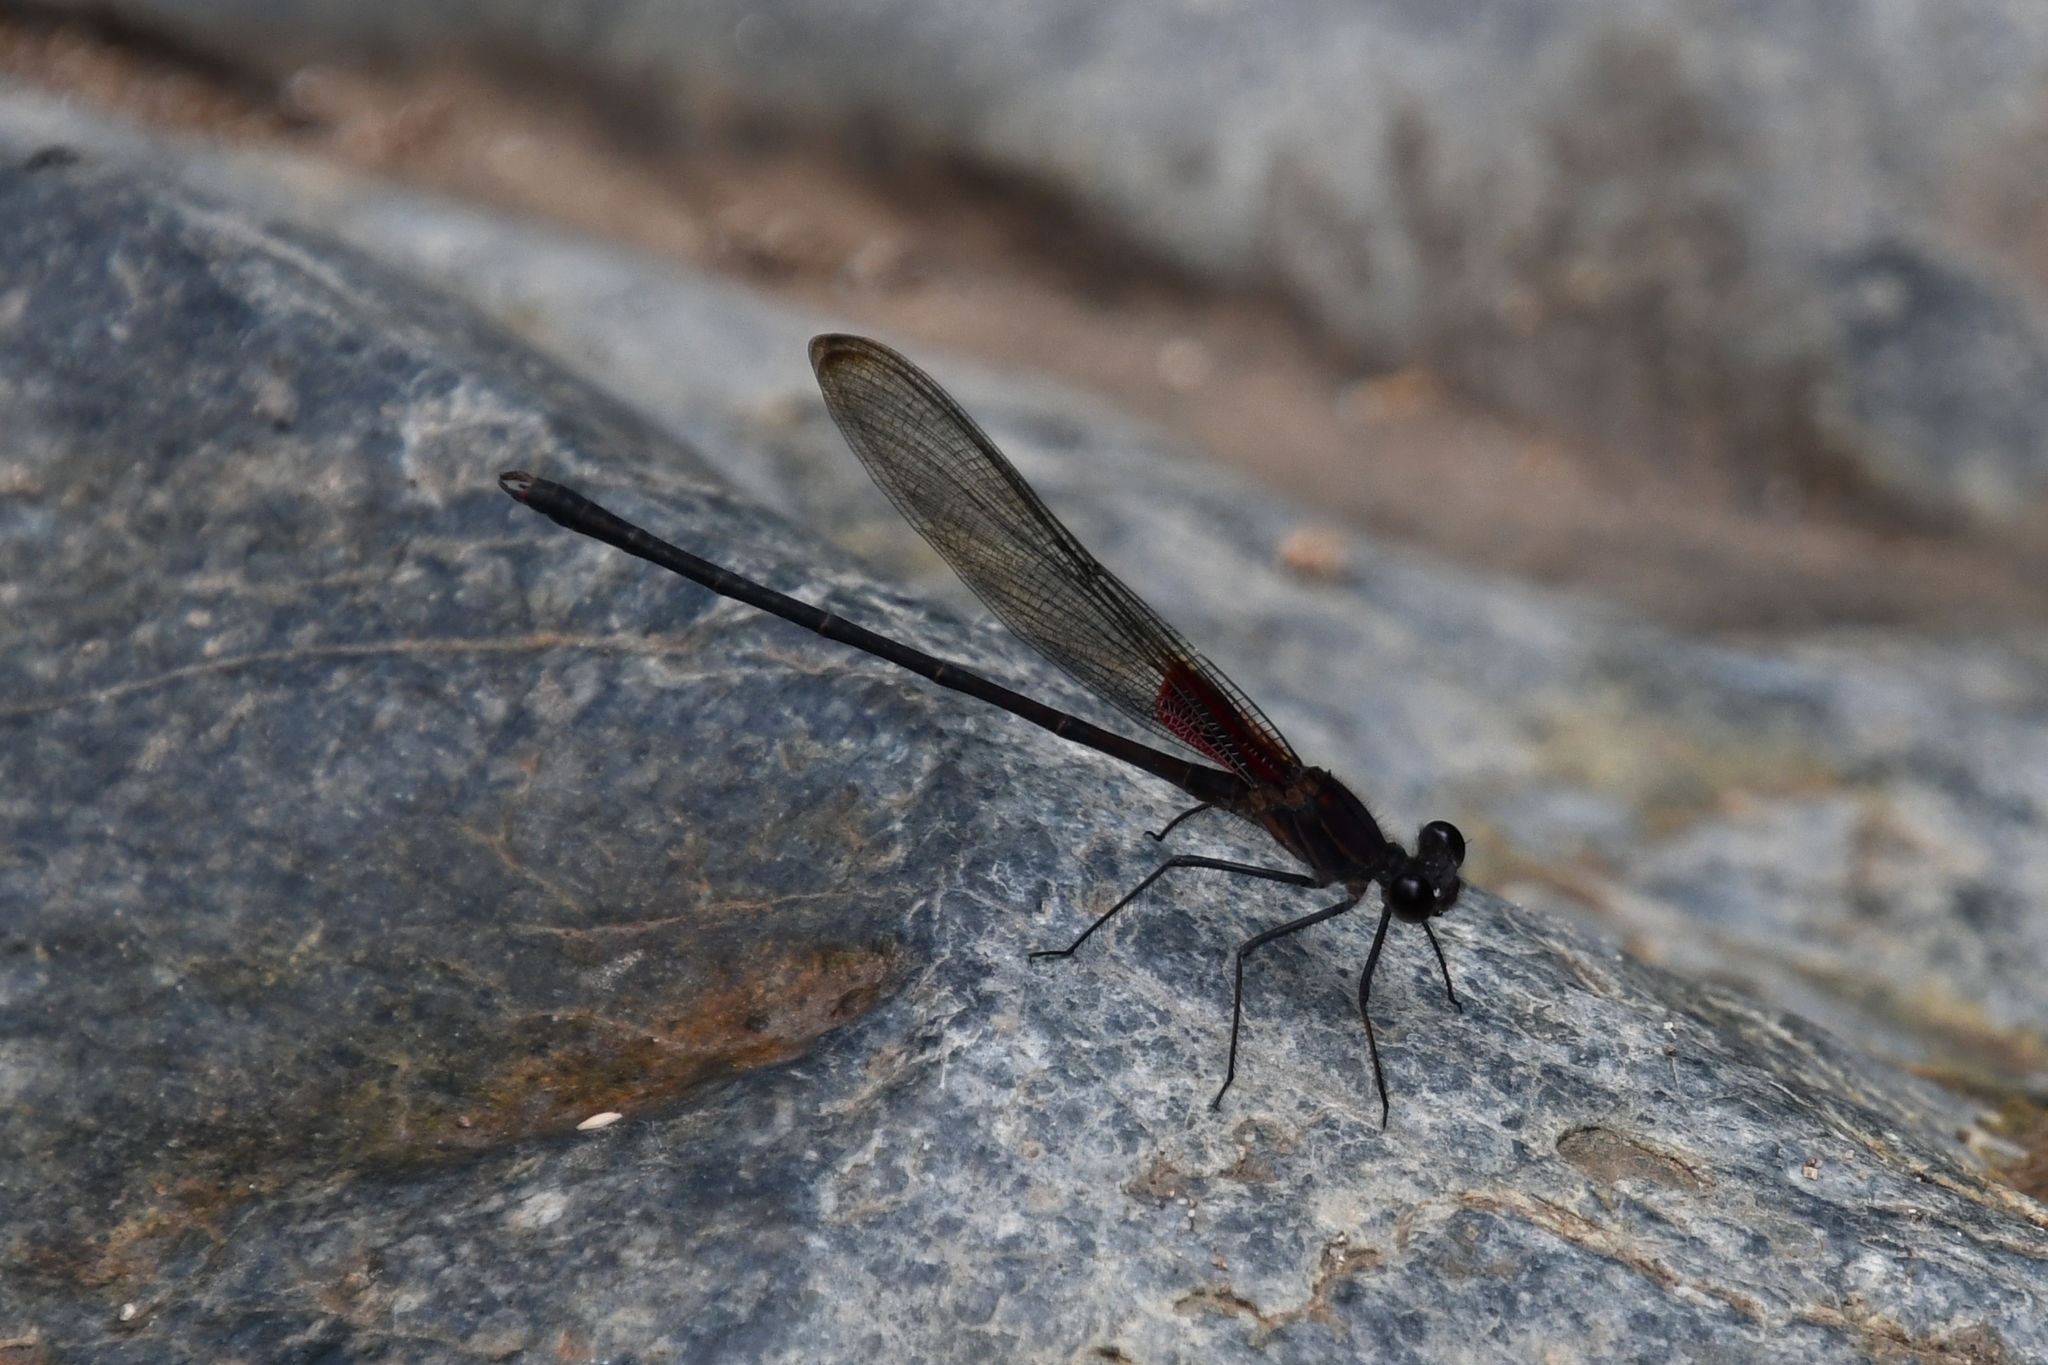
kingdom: Animalia
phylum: Arthropoda
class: Insecta
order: Odonata
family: Calopterygidae
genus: Hetaerina
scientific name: Hetaerina vulnerata
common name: Canyon rubyspot
